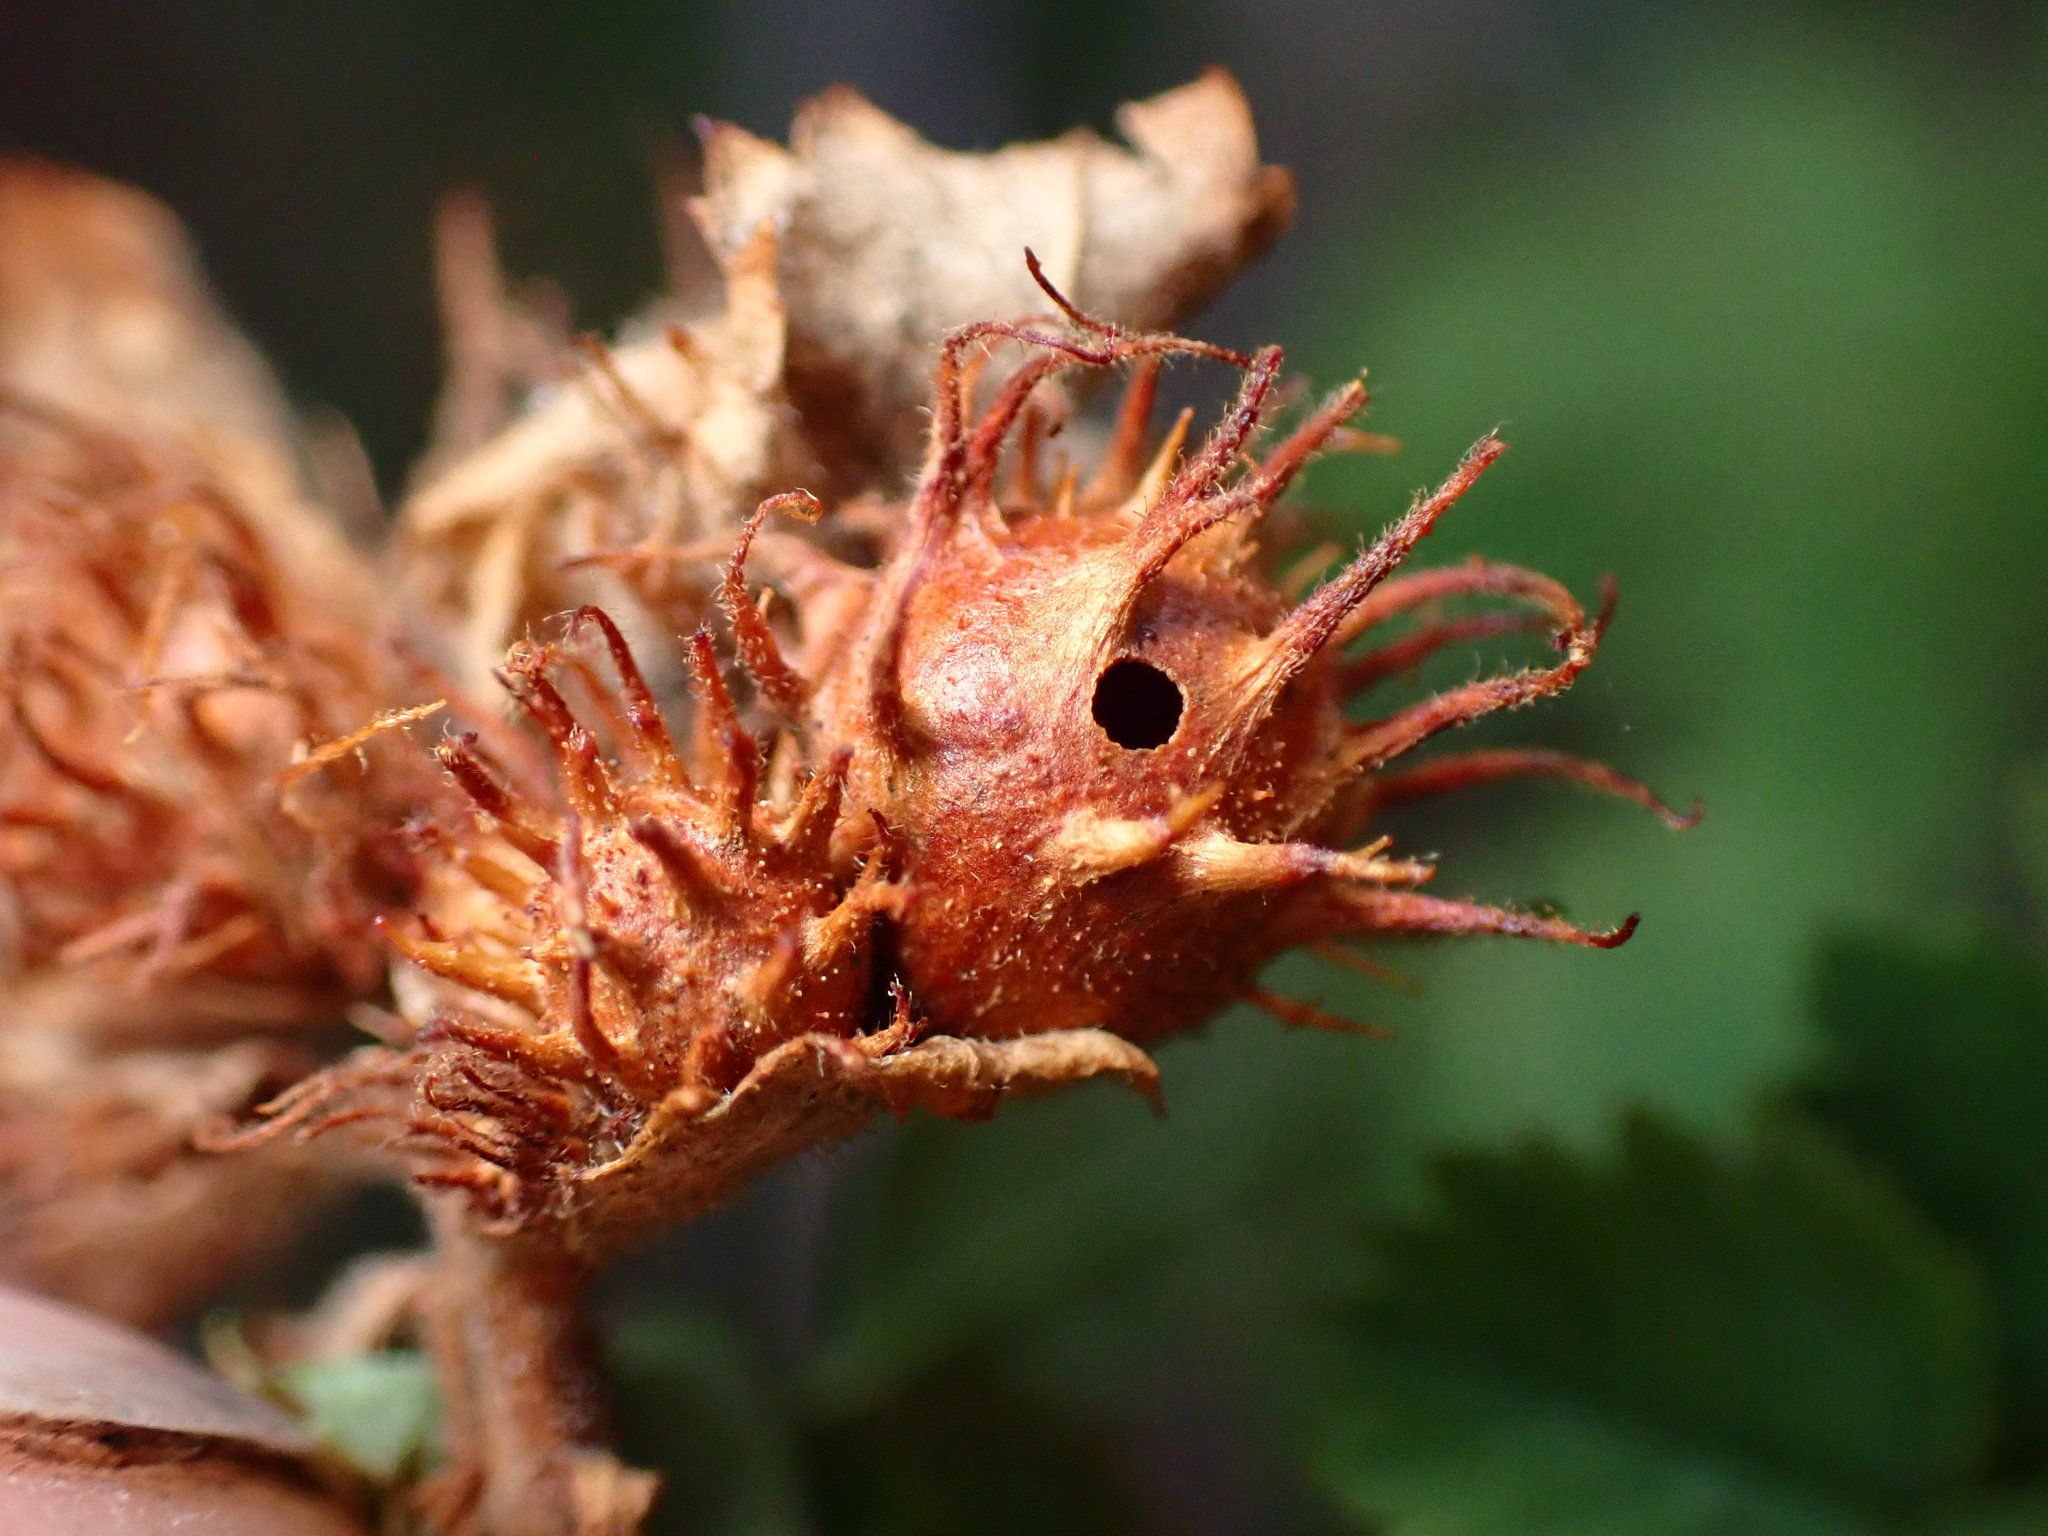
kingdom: Animalia
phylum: Arthropoda
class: Insecta
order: Hymenoptera
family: Cynipidae
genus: Diplolepis
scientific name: Diplolepis polita
